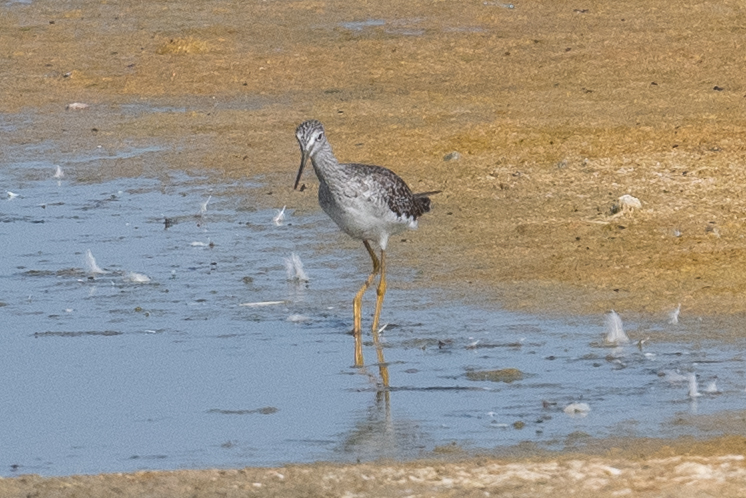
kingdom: Animalia
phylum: Chordata
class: Aves
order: Charadriiformes
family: Scolopacidae
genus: Tringa
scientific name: Tringa melanoleuca
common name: Greater yellowlegs
